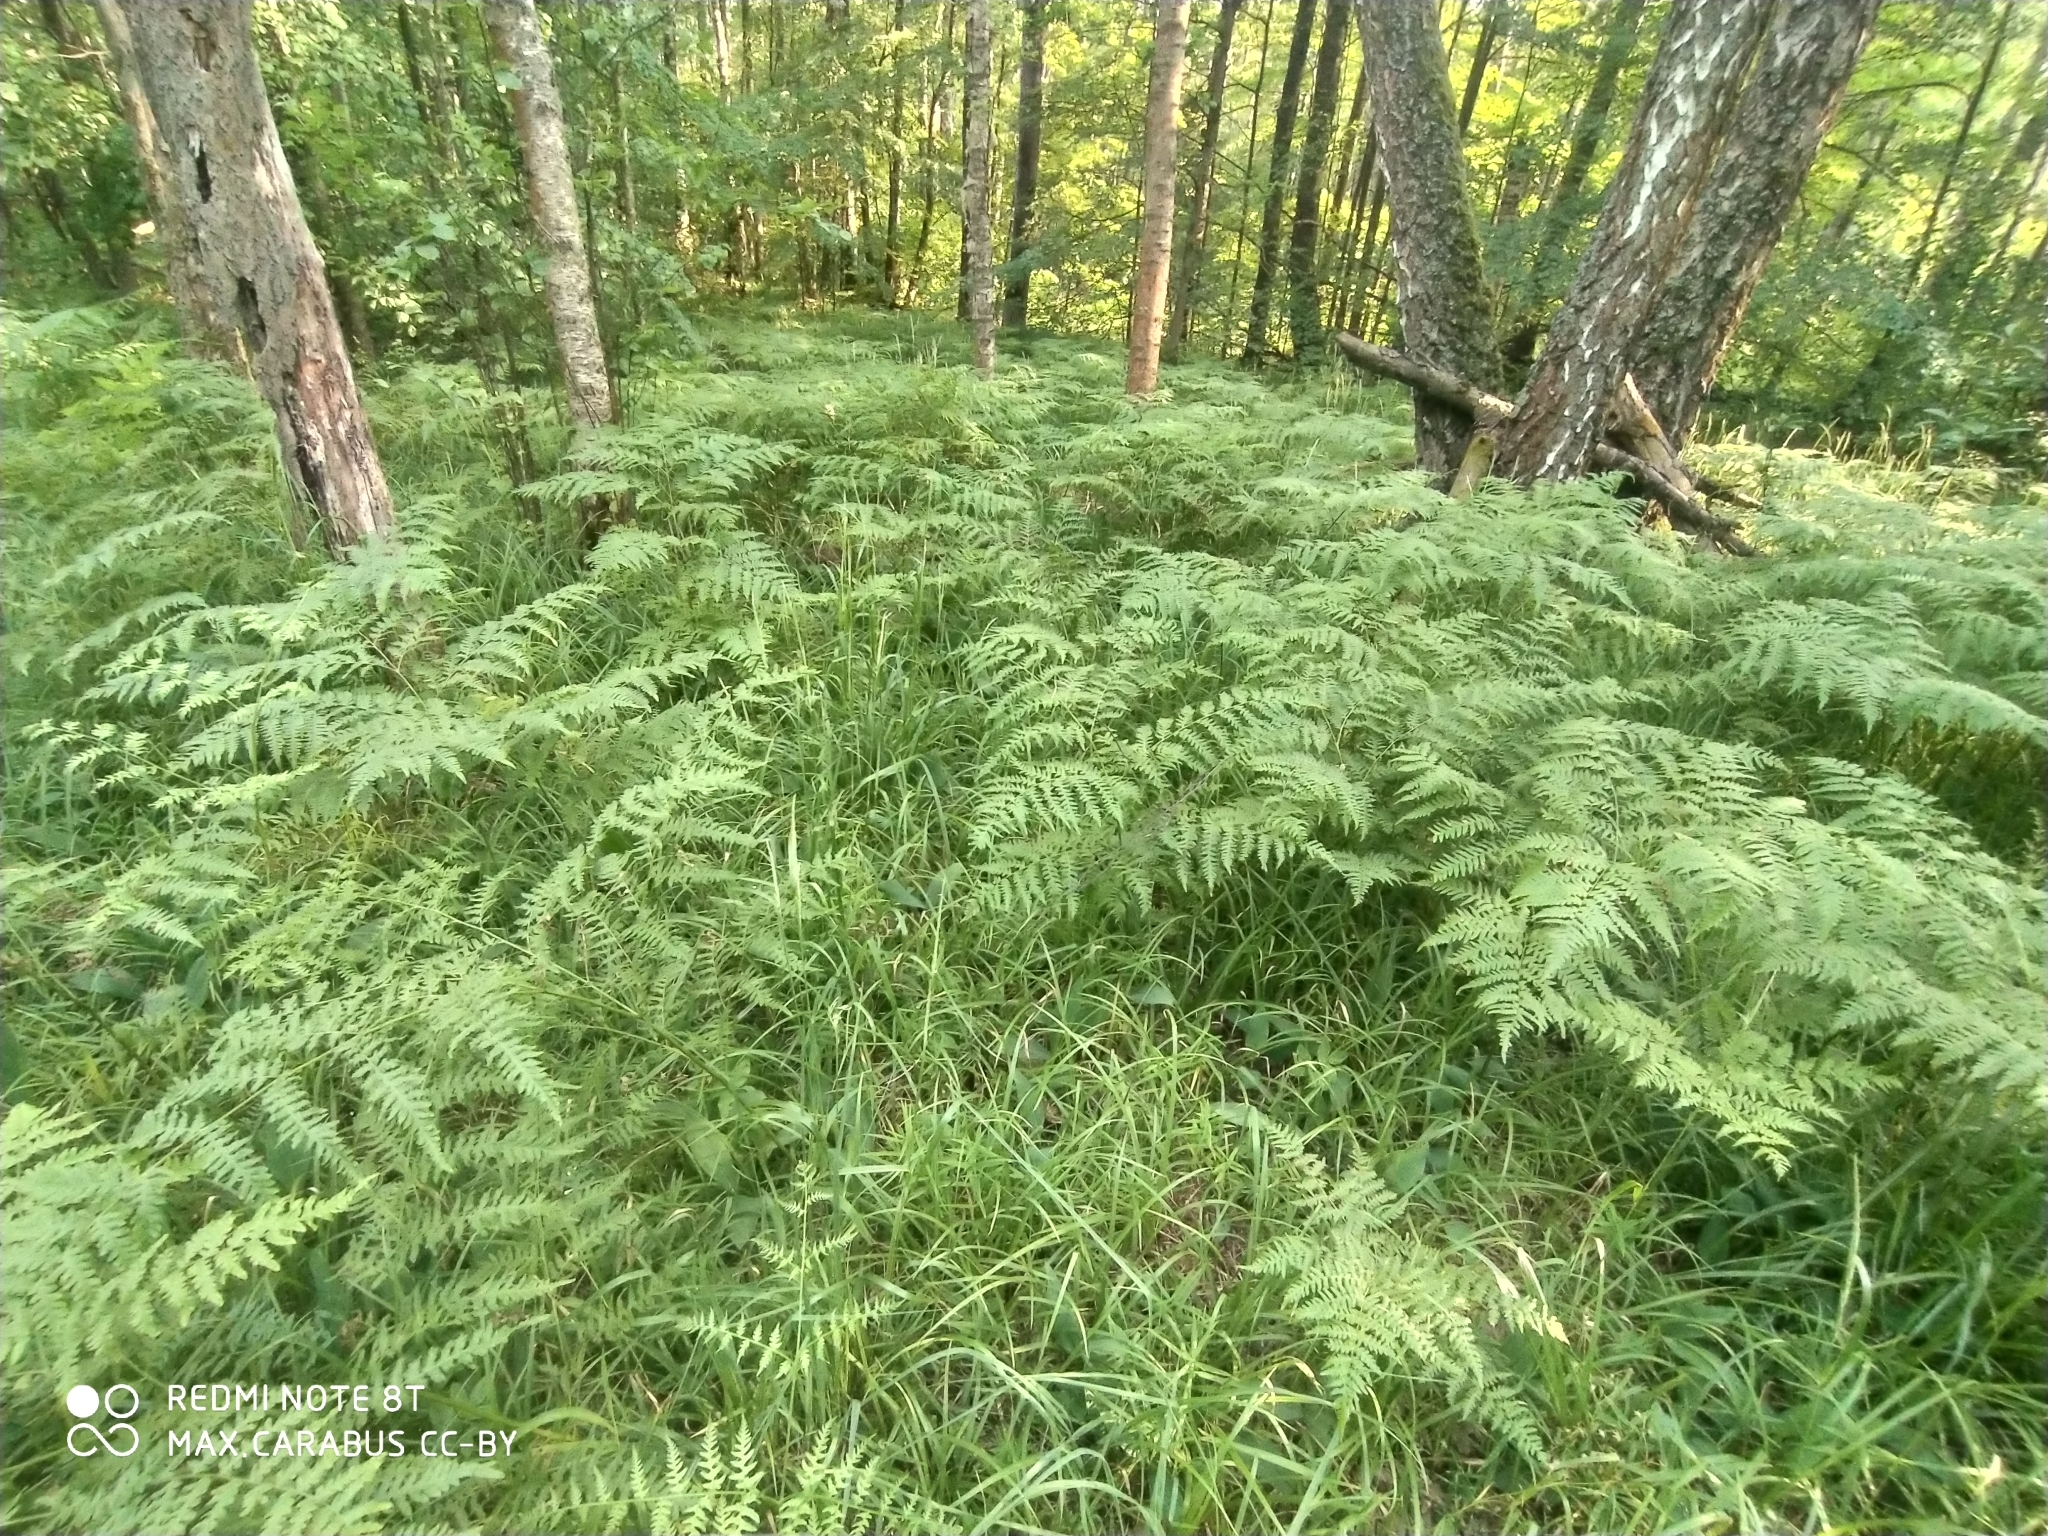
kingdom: Plantae
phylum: Tracheophyta
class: Polypodiopsida
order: Polypodiales
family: Dennstaedtiaceae
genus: Pteridium
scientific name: Pteridium aquilinum
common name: Bracken
